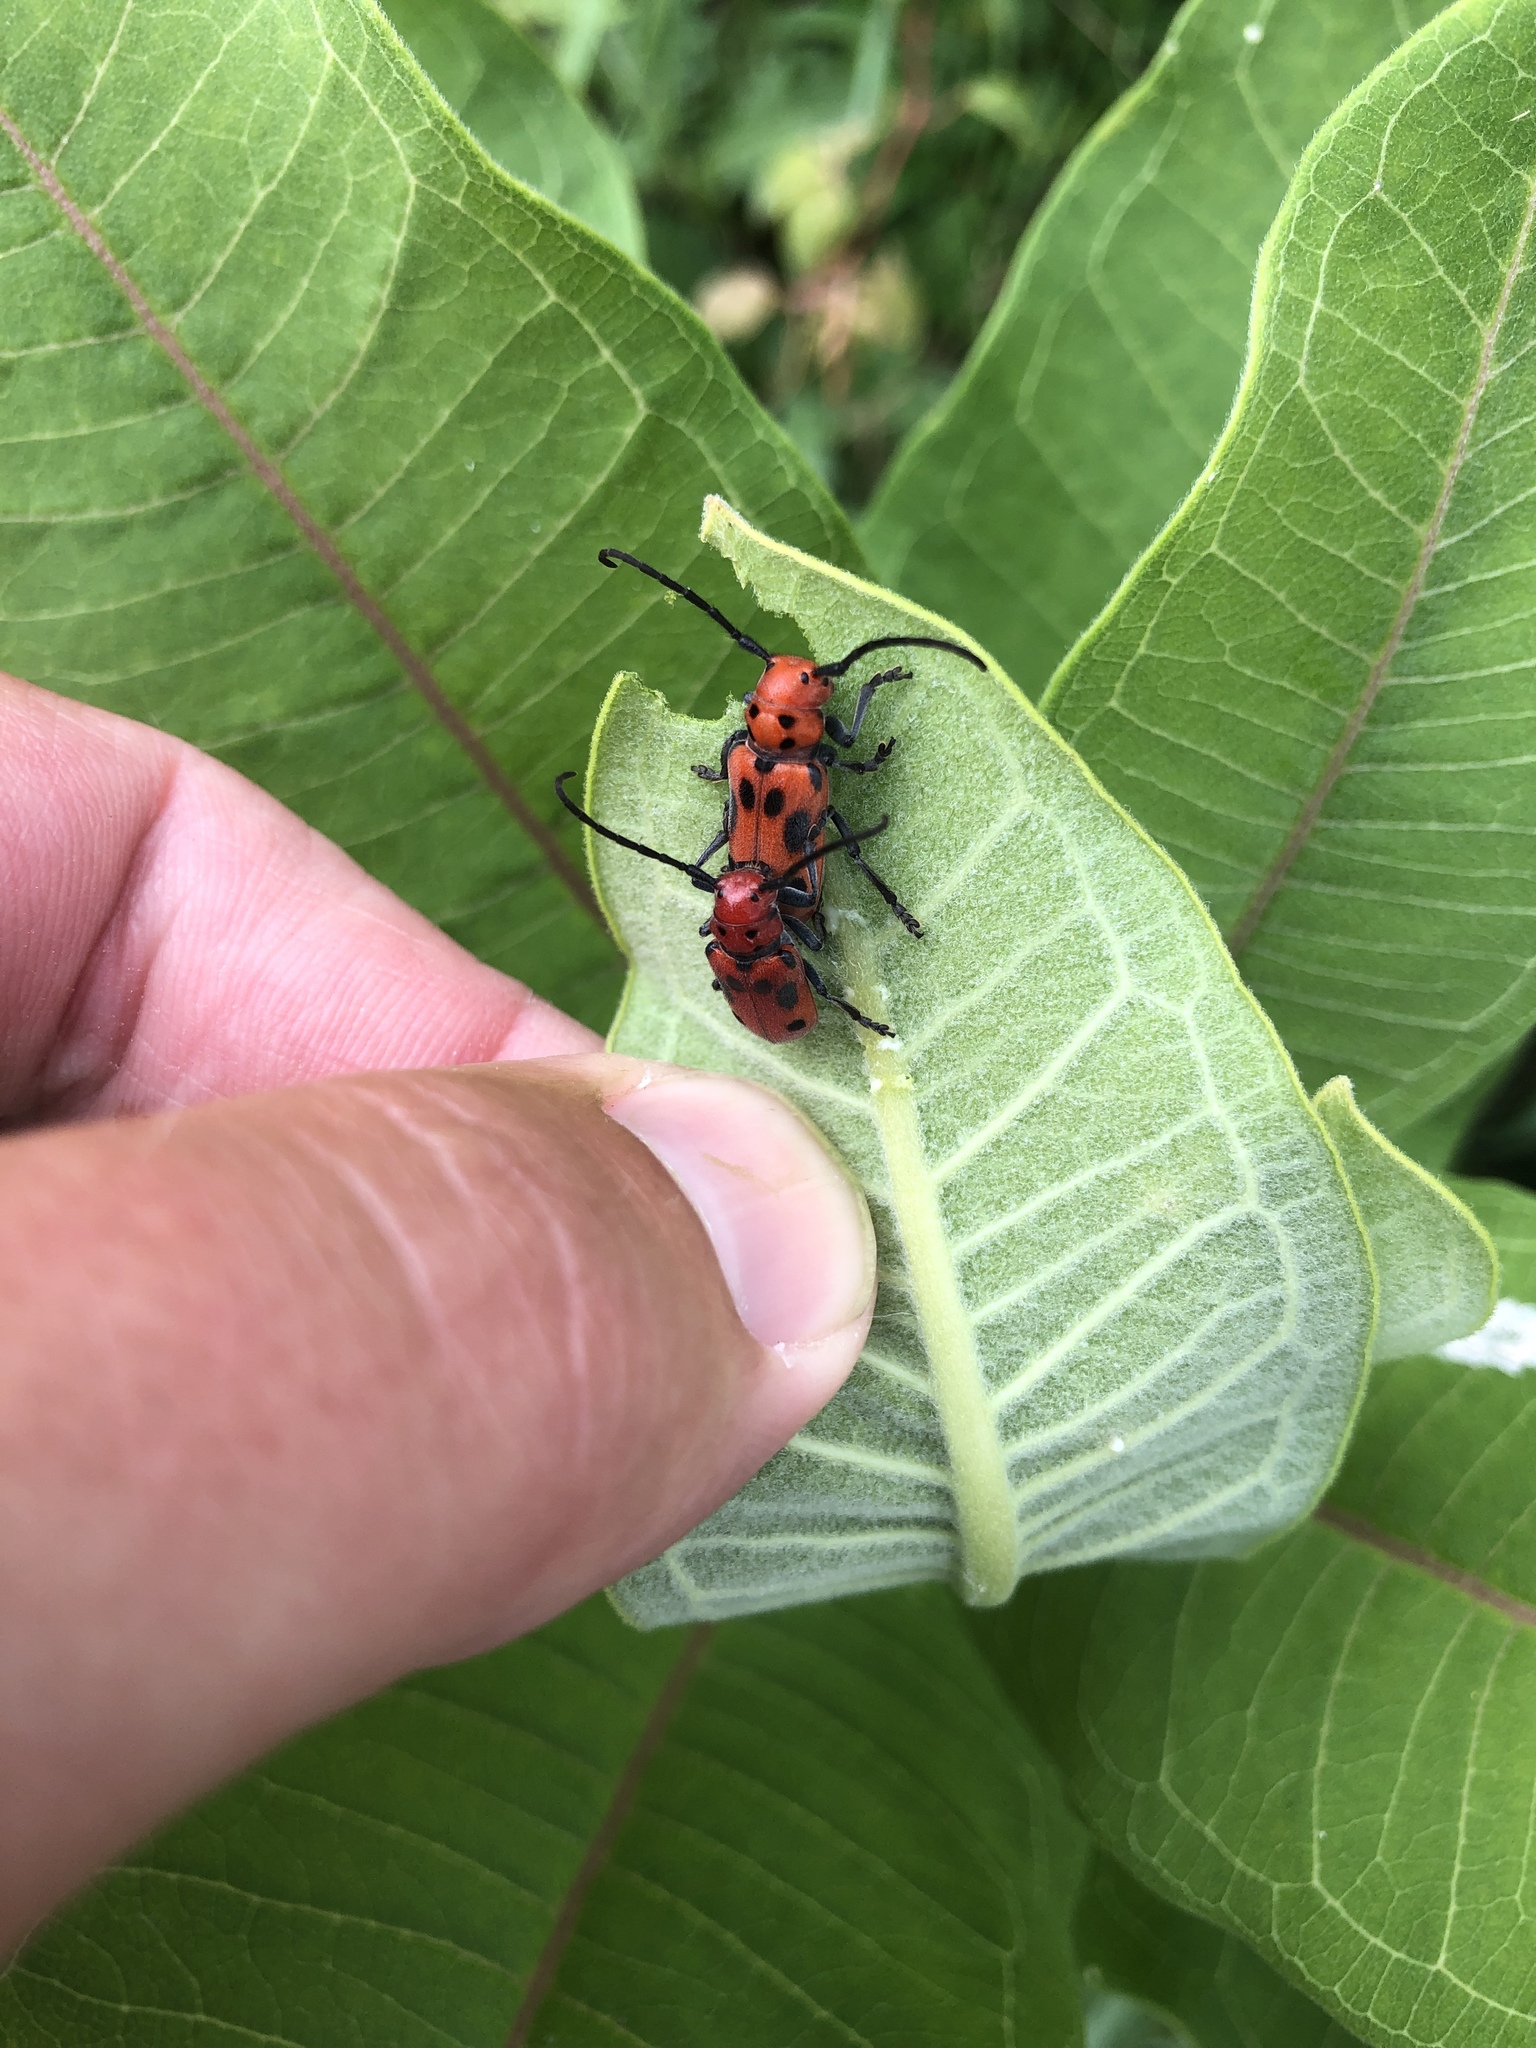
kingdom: Animalia
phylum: Arthropoda
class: Insecta
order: Coleoptera
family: Cerambycidae
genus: Tetraopes
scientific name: Tetraopes tetrophthalmus
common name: Red milkweed beetle
